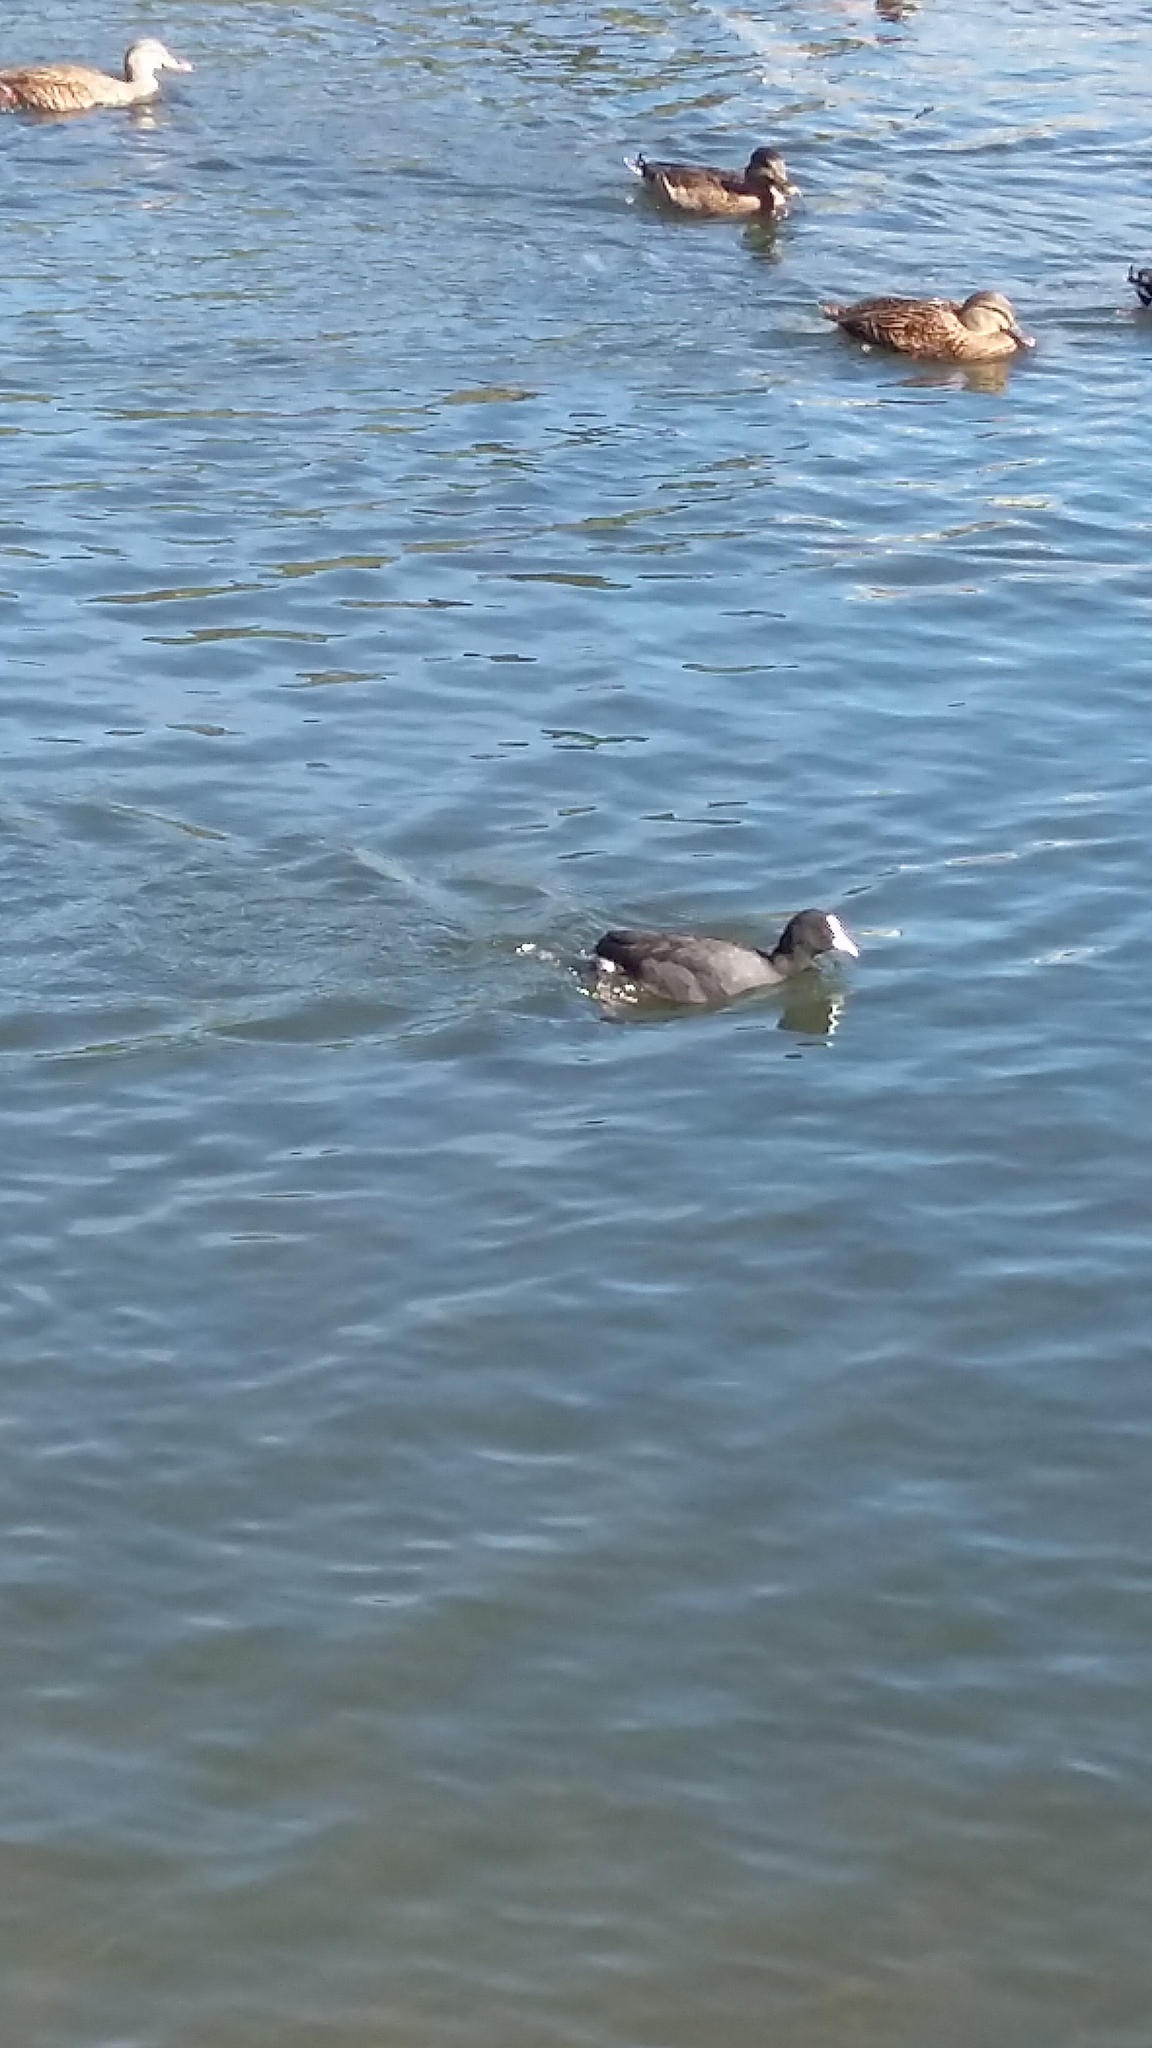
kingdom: Animalia
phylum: Chordata
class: Aves
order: Gruiformes
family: Rallidae
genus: Fulica
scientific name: Fulica atra
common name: Eurasian coot
